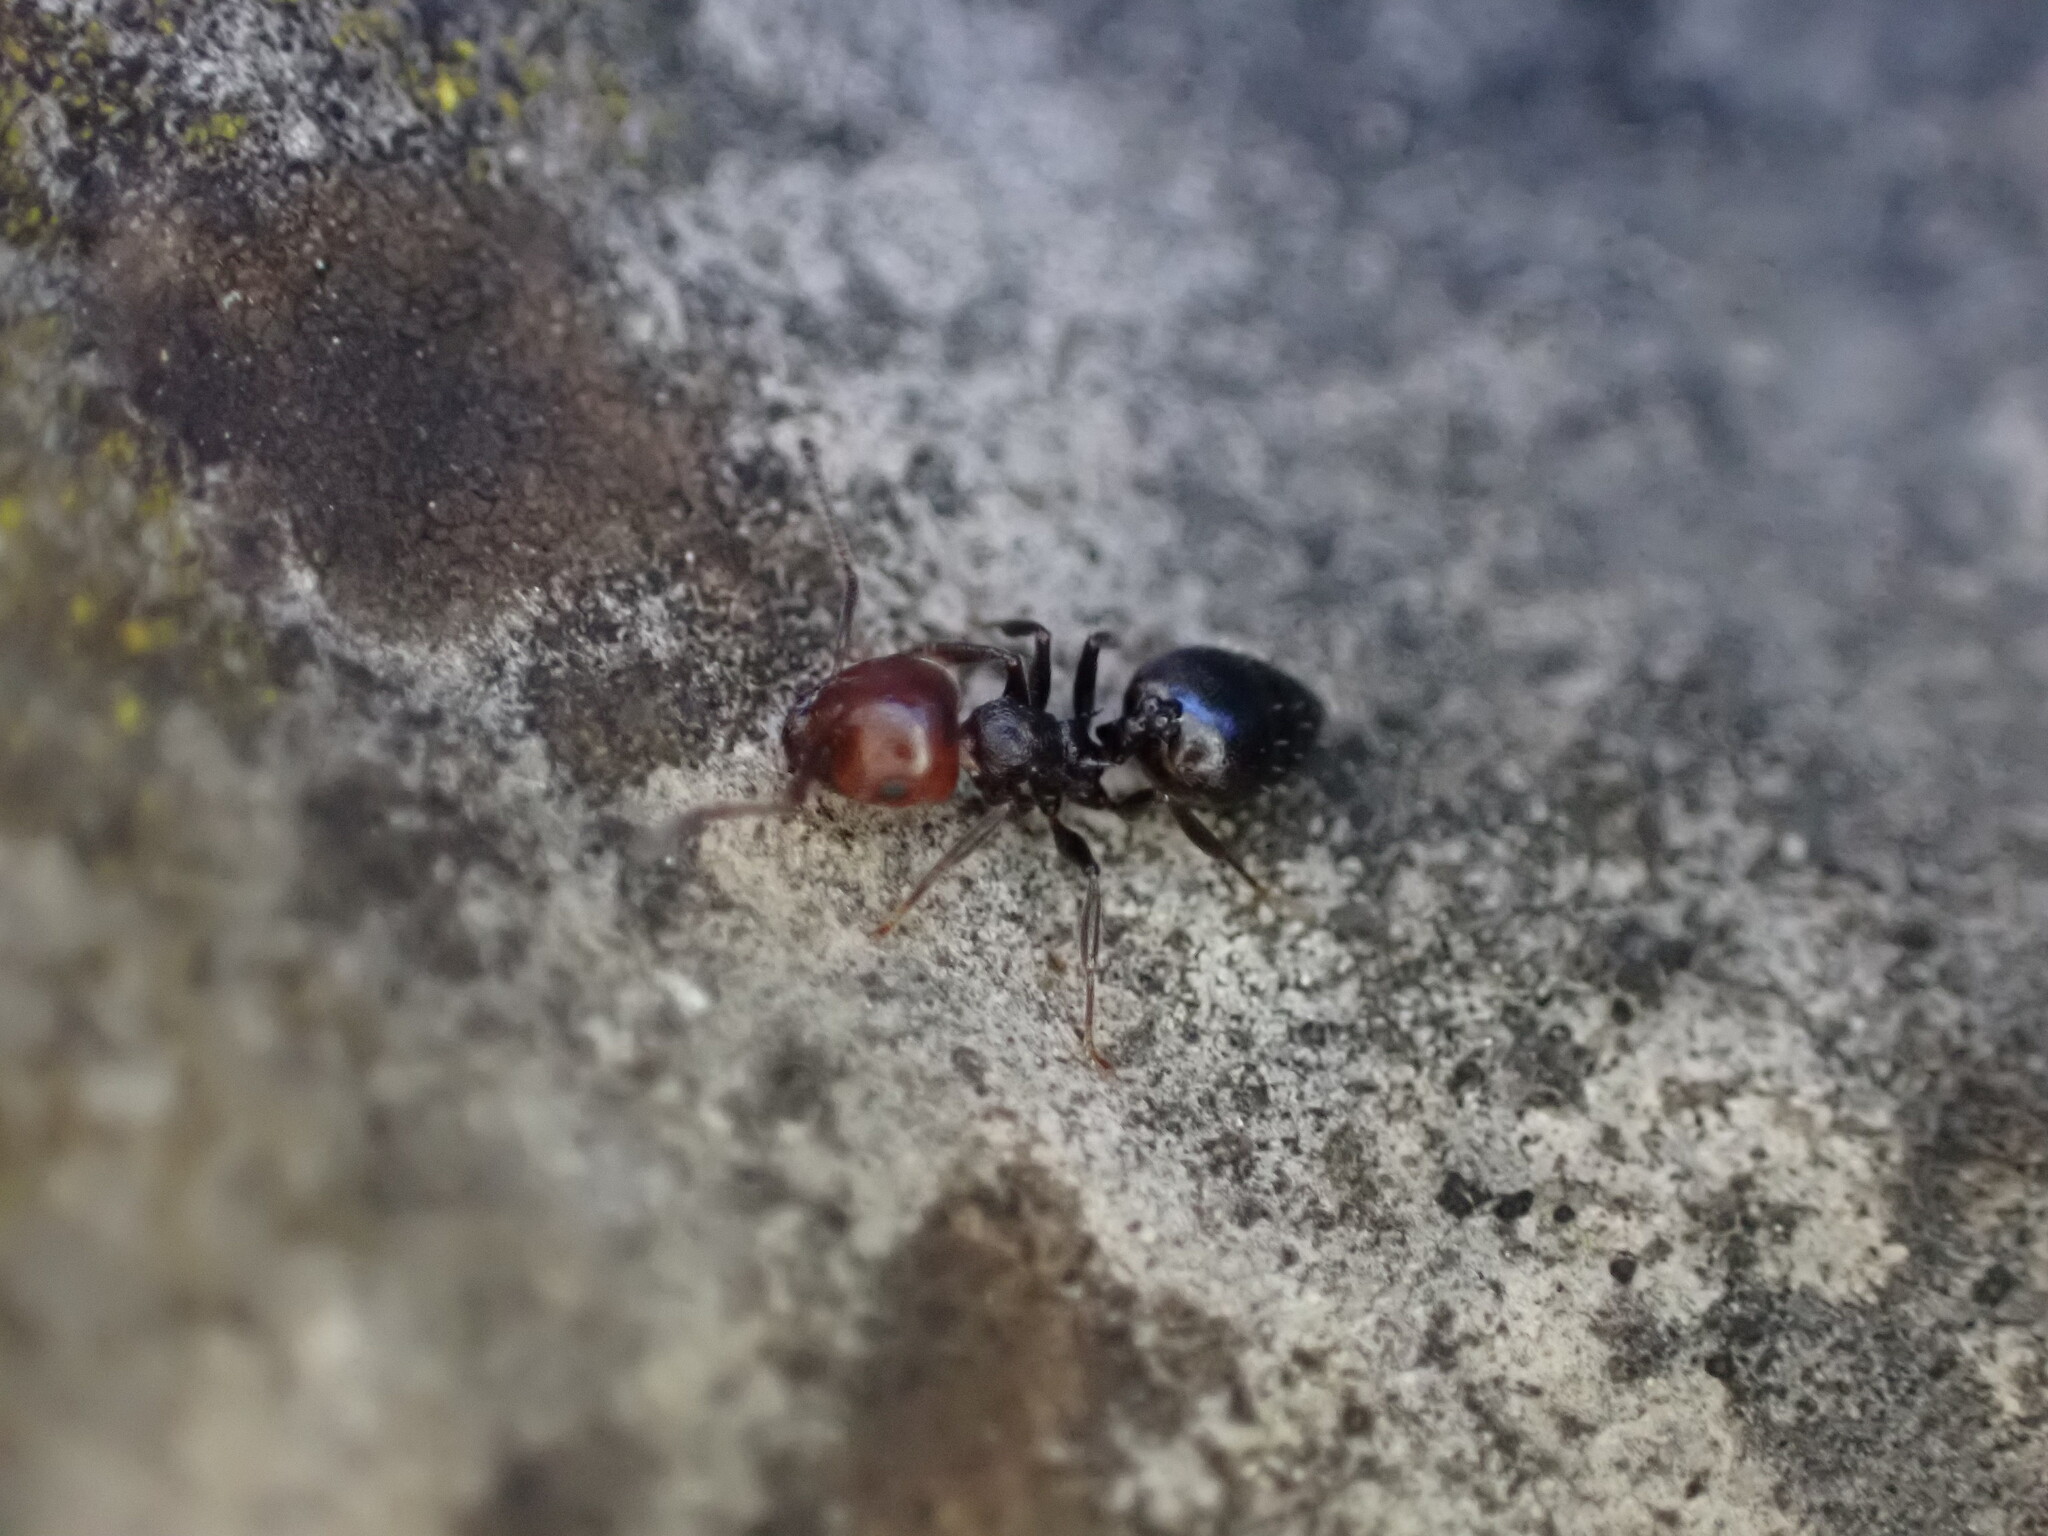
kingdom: Animalia
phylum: Arthropoda
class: Insecta
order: Hymenoptera
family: Formicidae
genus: Crematogaster
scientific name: Crematogaster scutellaris
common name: Fourmi du liège
